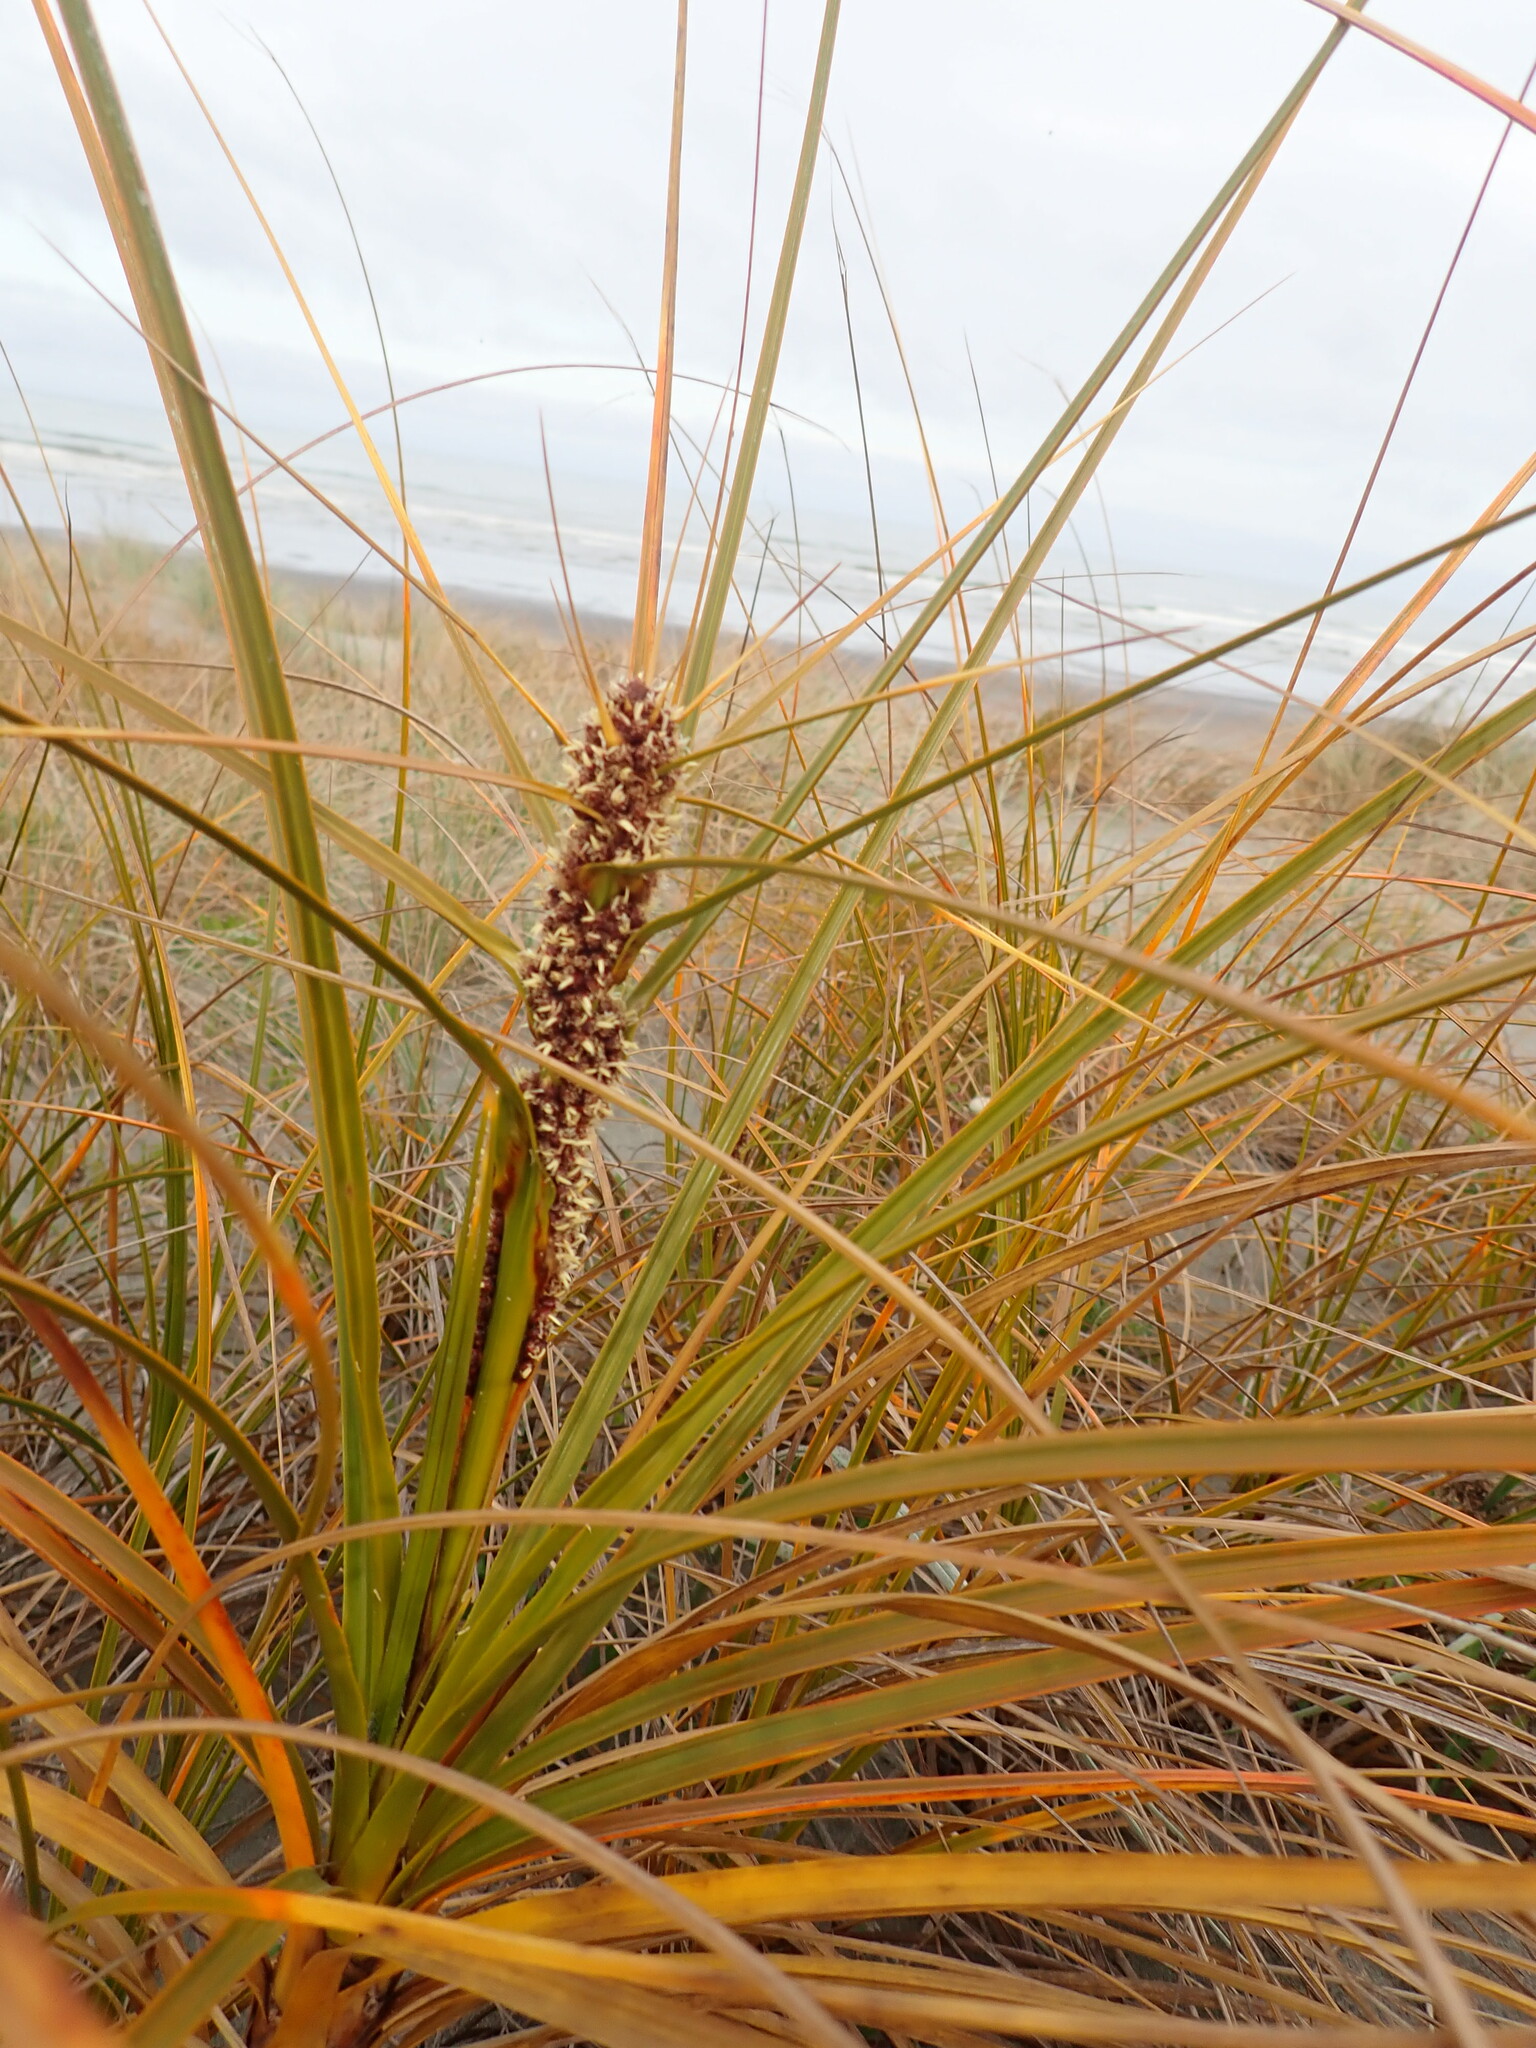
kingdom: Plantae
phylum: Tracheophyta
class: Liliopsida
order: Poales
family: Cyperaceae
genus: Ficinia
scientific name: Ficinia spiralis
